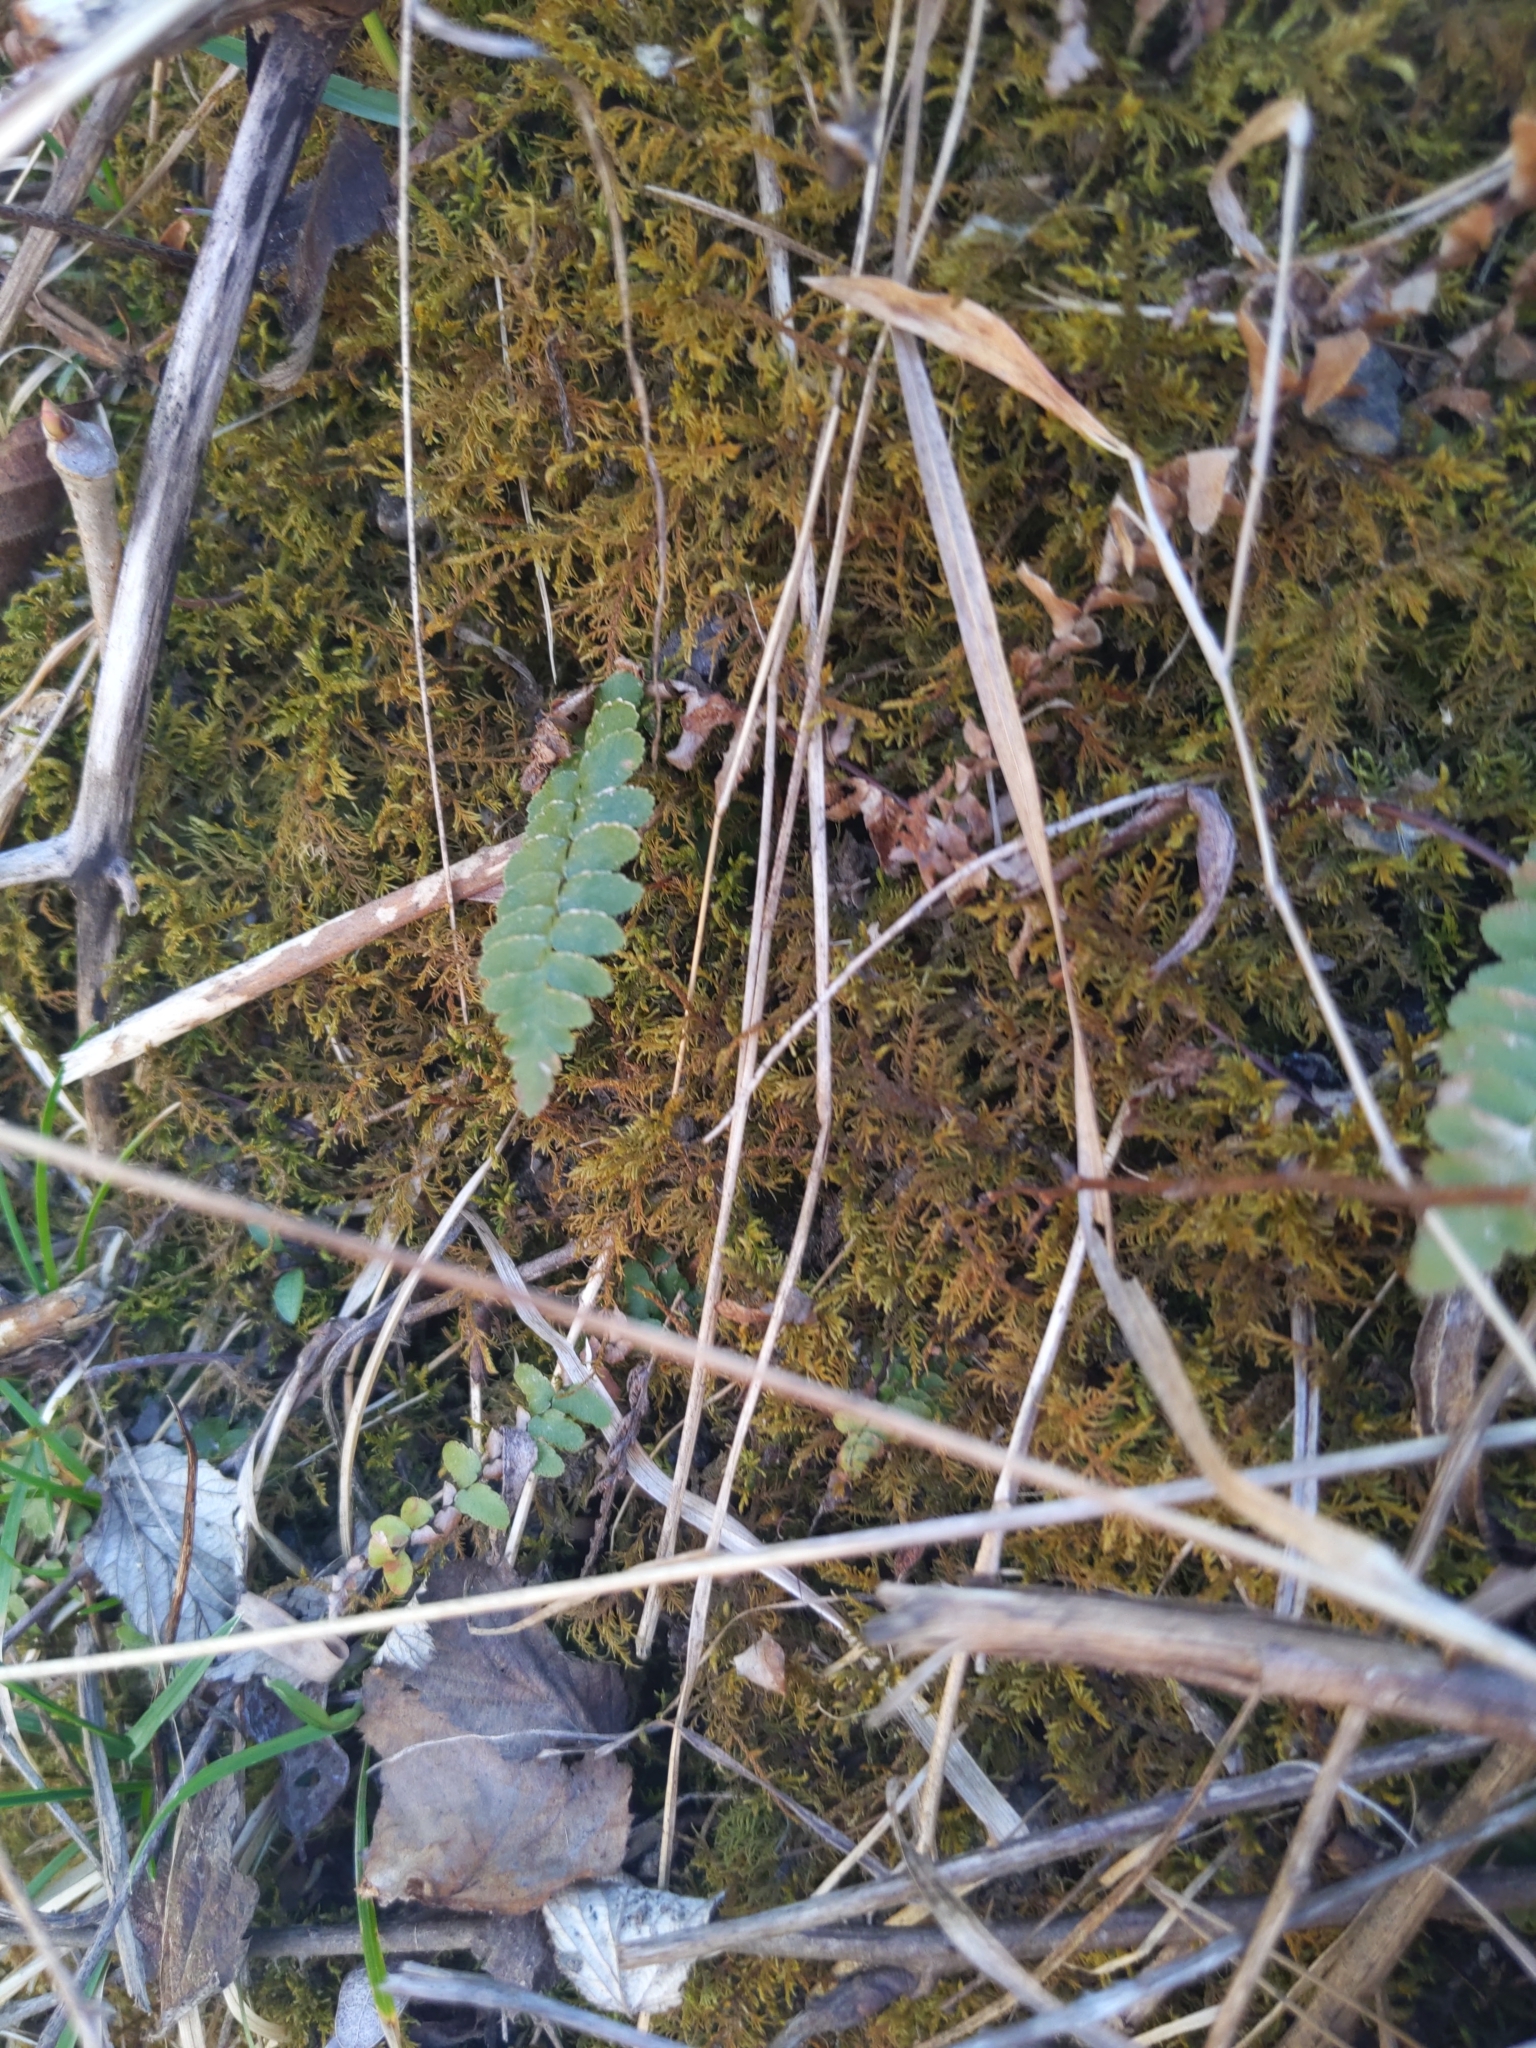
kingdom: Plantae
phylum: Tracheophyta
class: Polypodiopsida
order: Polypodiales
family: Aspleniaceae
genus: Asplenium
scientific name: Asplenium platyneuron
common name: Ebony spleenwort
